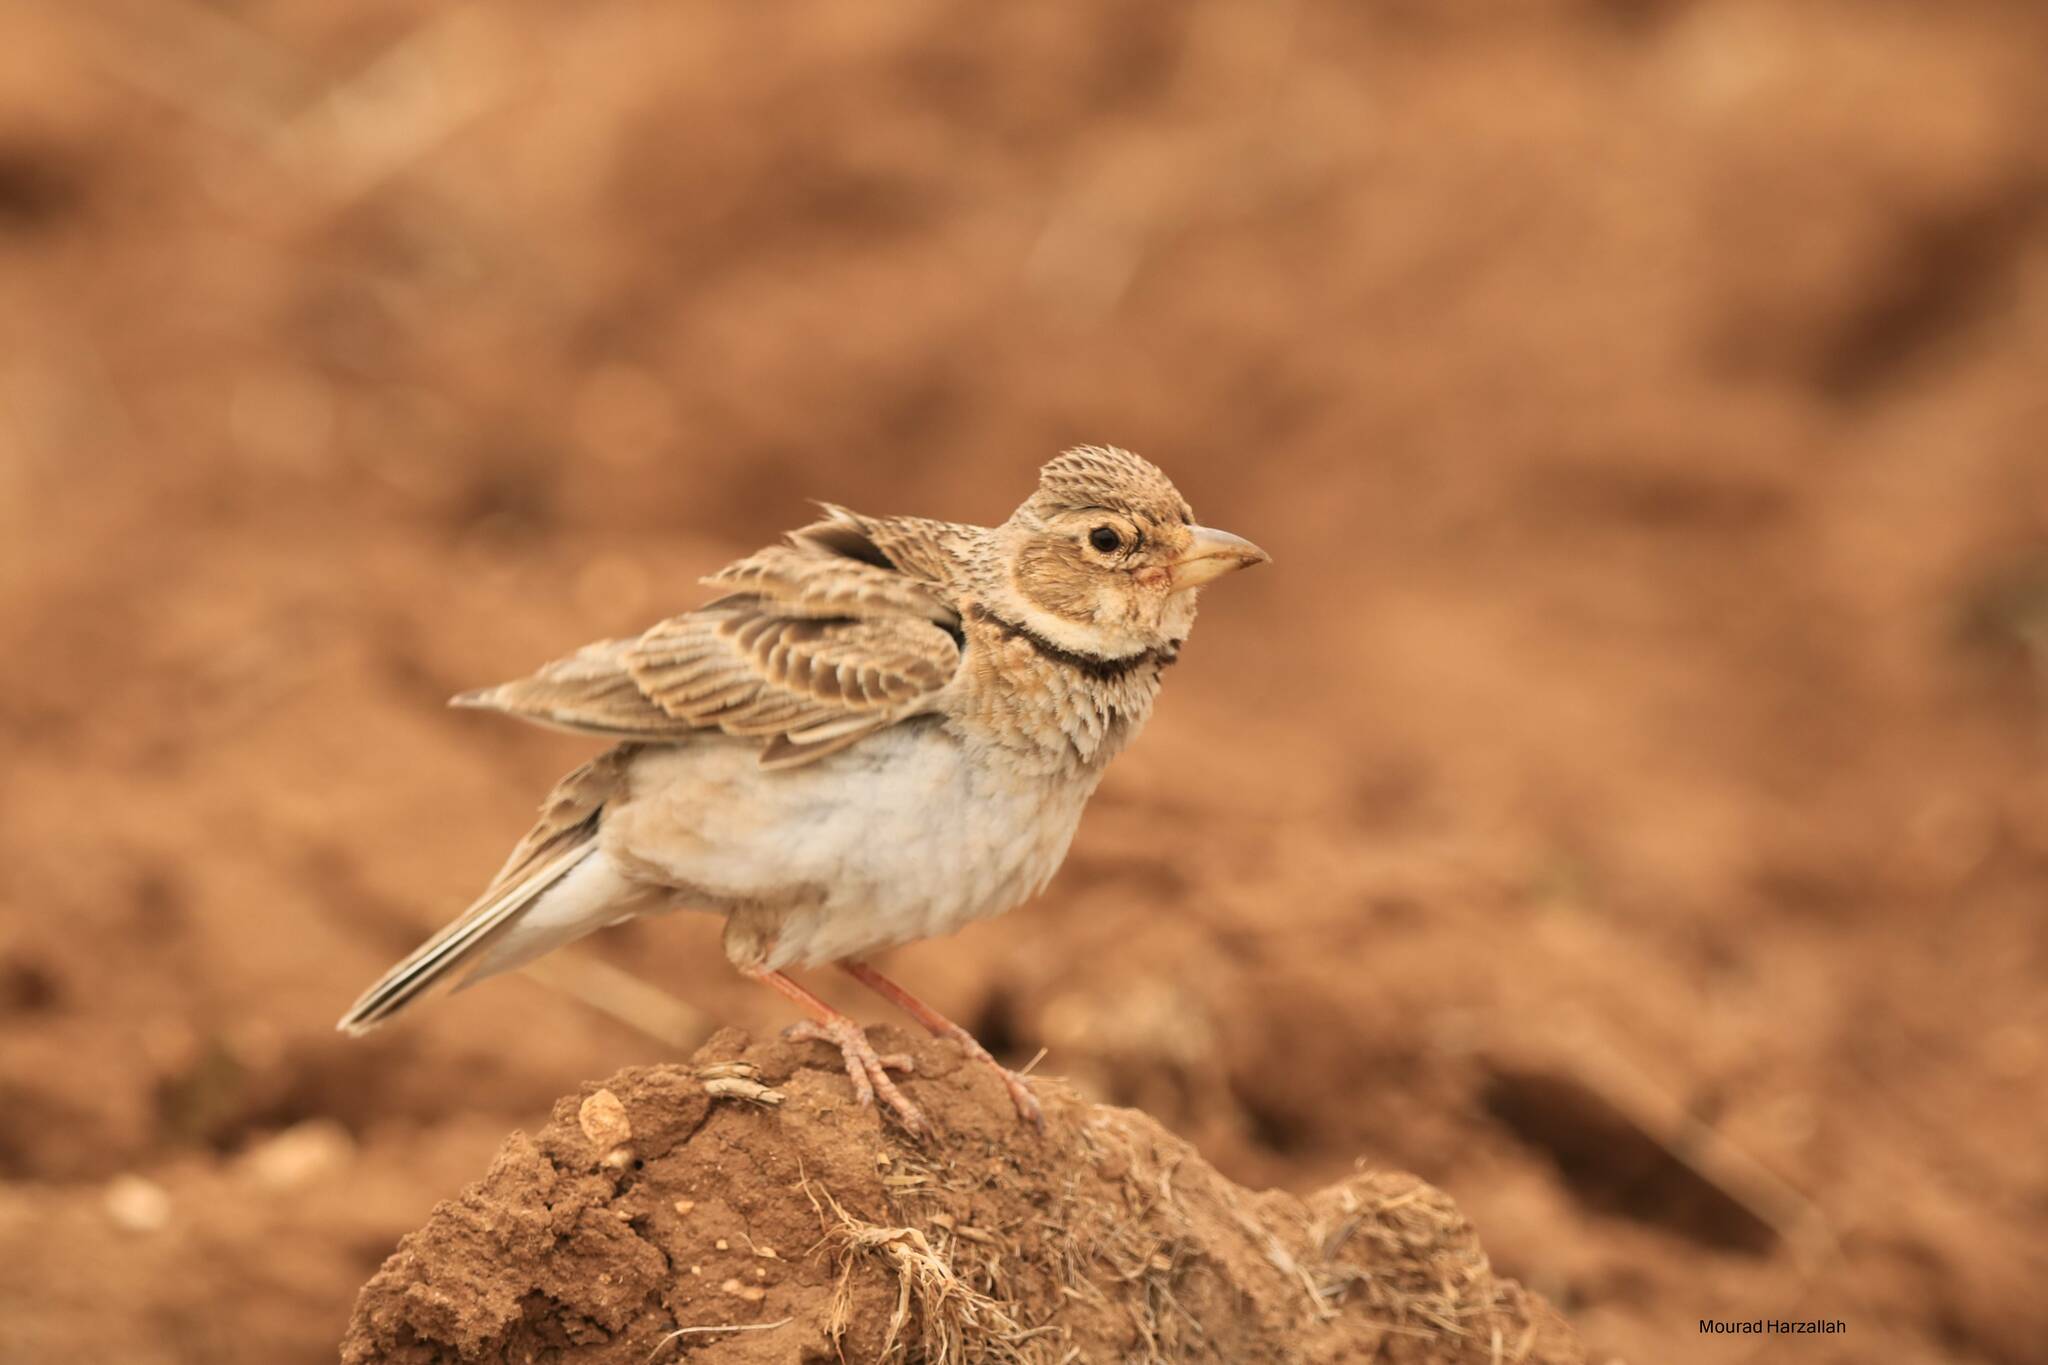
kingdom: Animalia
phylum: Chordata
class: Aves
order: Passeriformes
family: Alaudidae
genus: Melanocorypha
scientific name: Melanocorypha calandra
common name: Calandra lark
